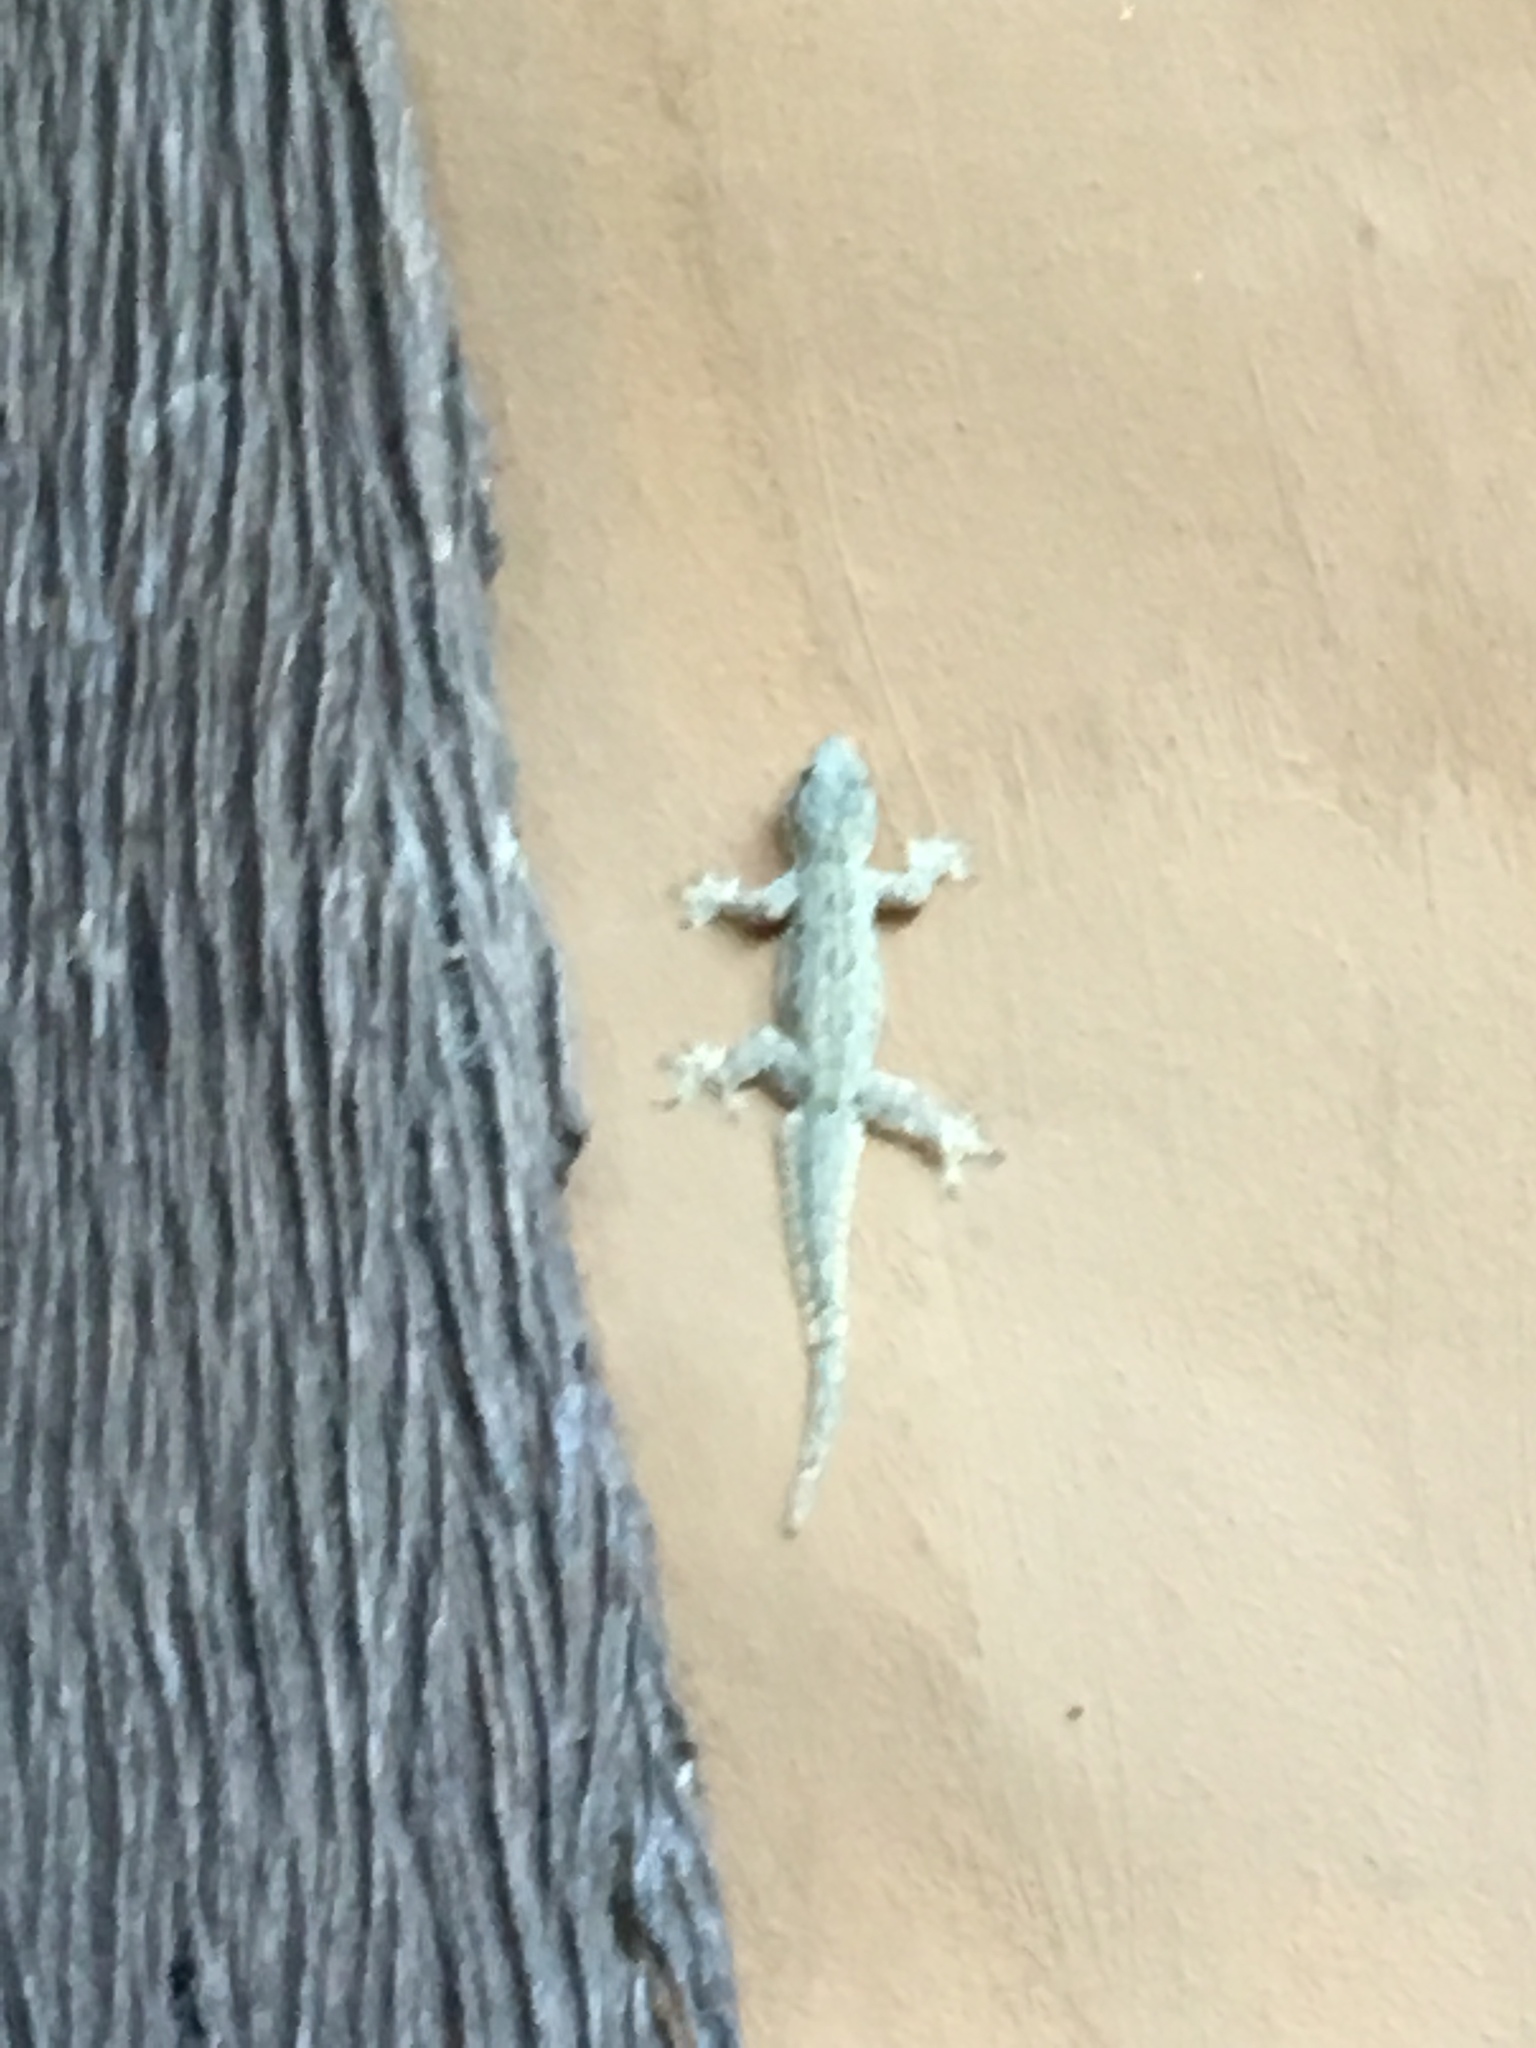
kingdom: Animalia
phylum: Chordata
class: Squamata
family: Gekkonidae
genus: Hemidactylus
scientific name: Hemidactylus platyurus
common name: Flat-tailed house gecko
